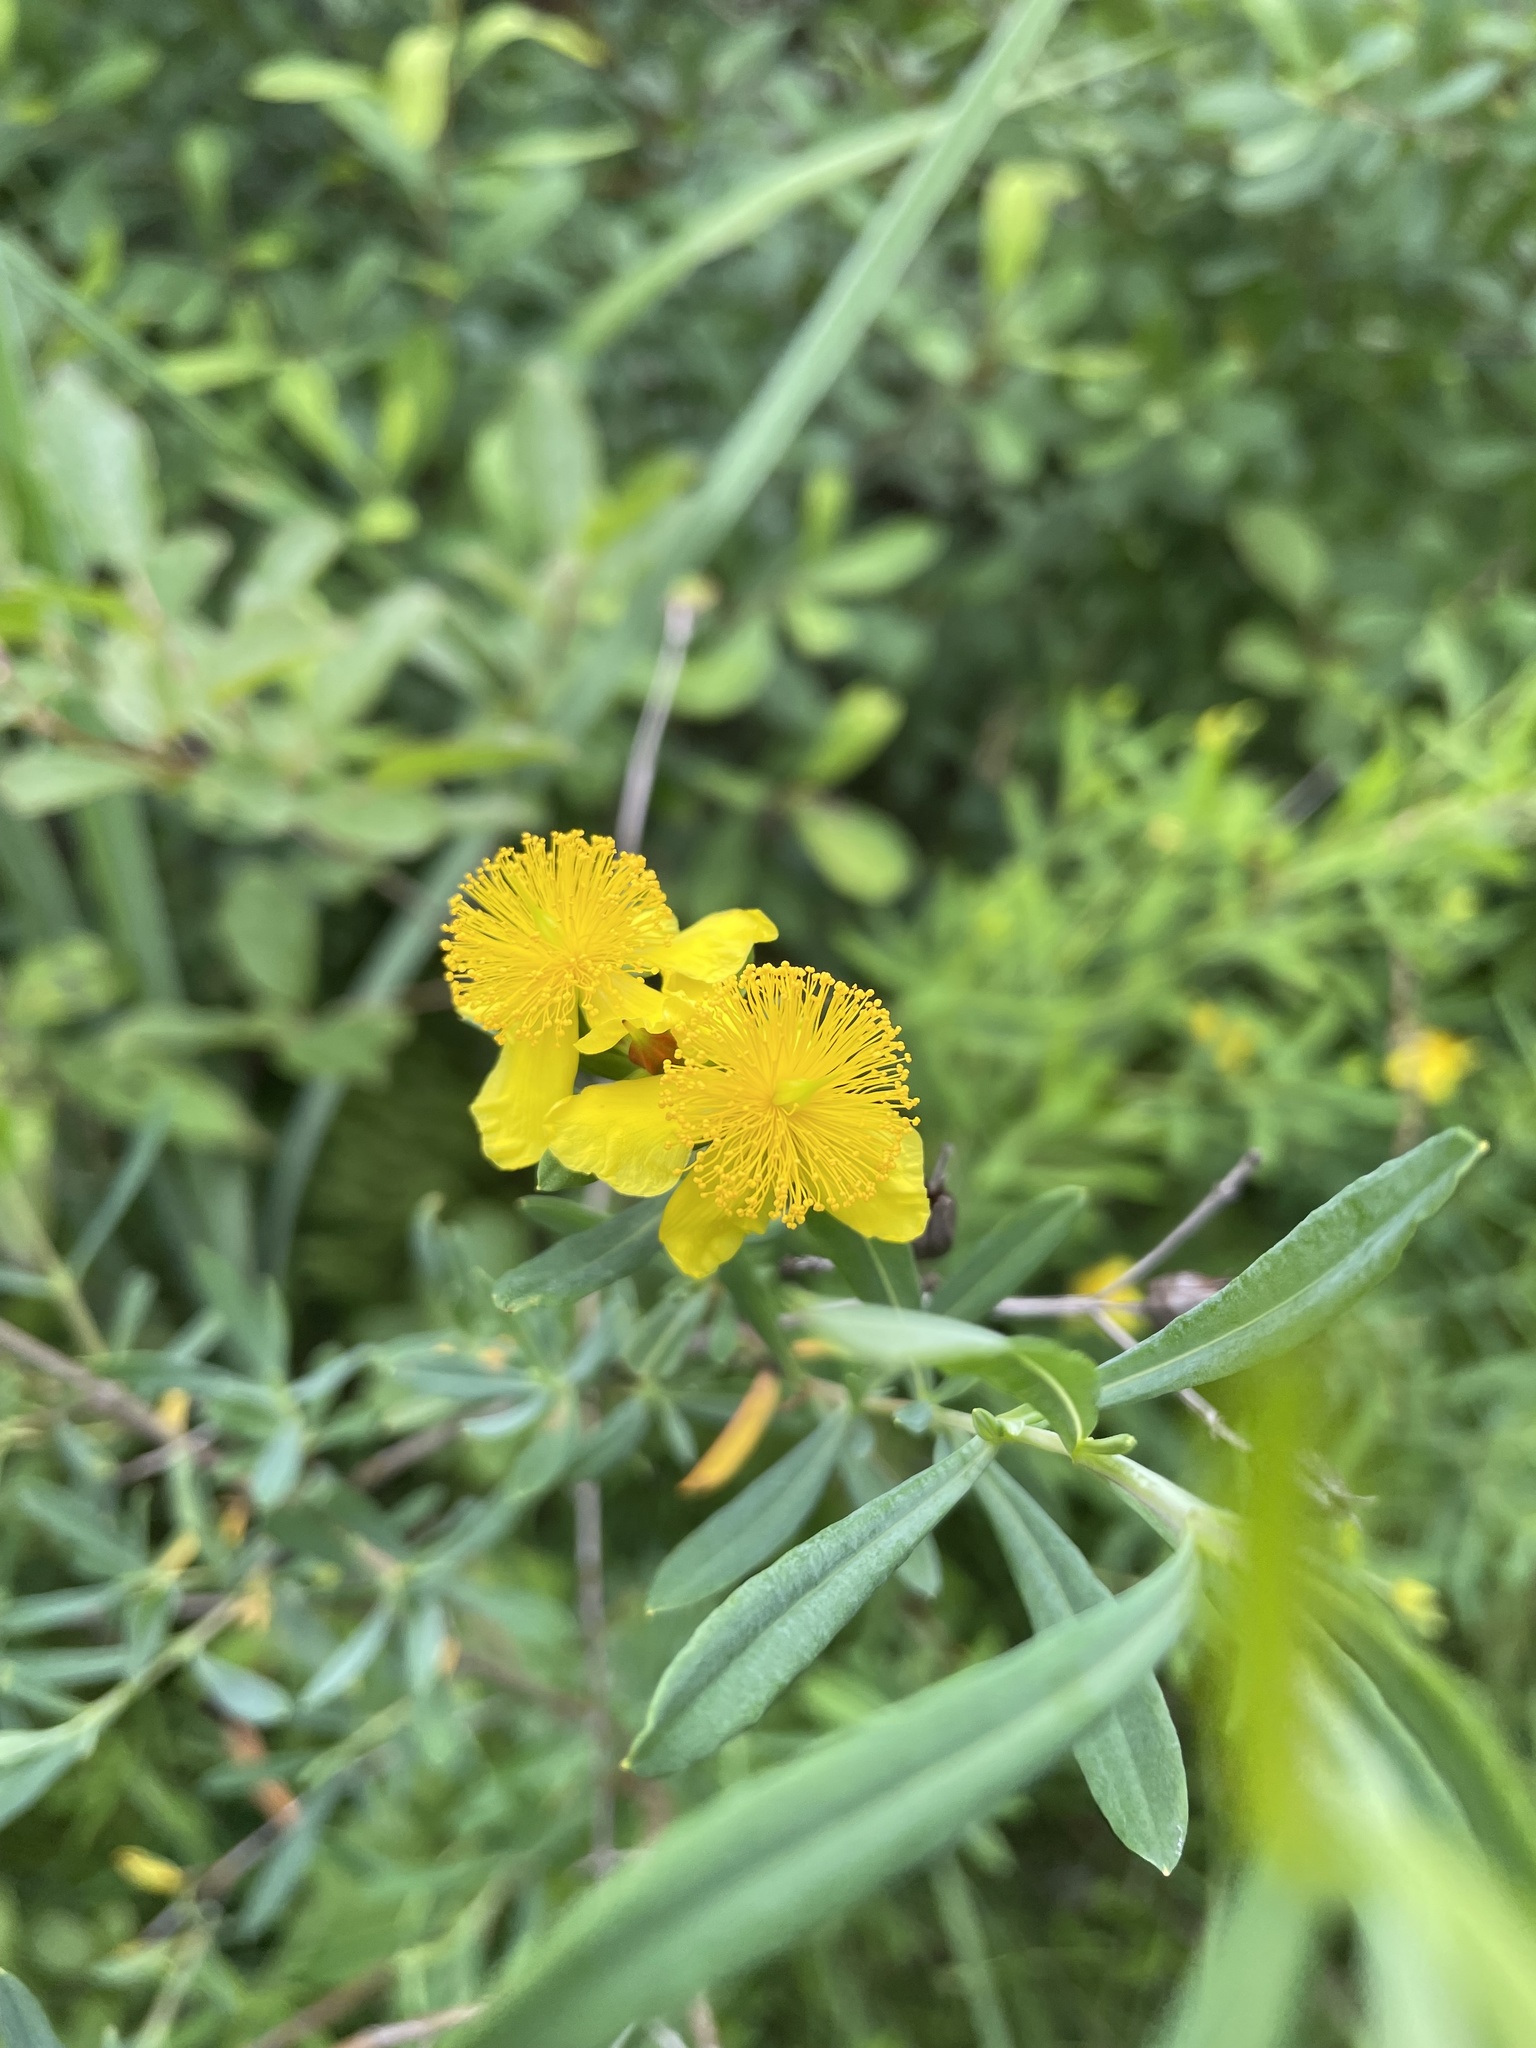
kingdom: Plantae
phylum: Tracheophyta
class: Magnoliopsida
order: Malpighiales
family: Hypericaceae
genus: Hypericum
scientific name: Hypericum kalmianum
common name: Kalm's st. john's-wort
